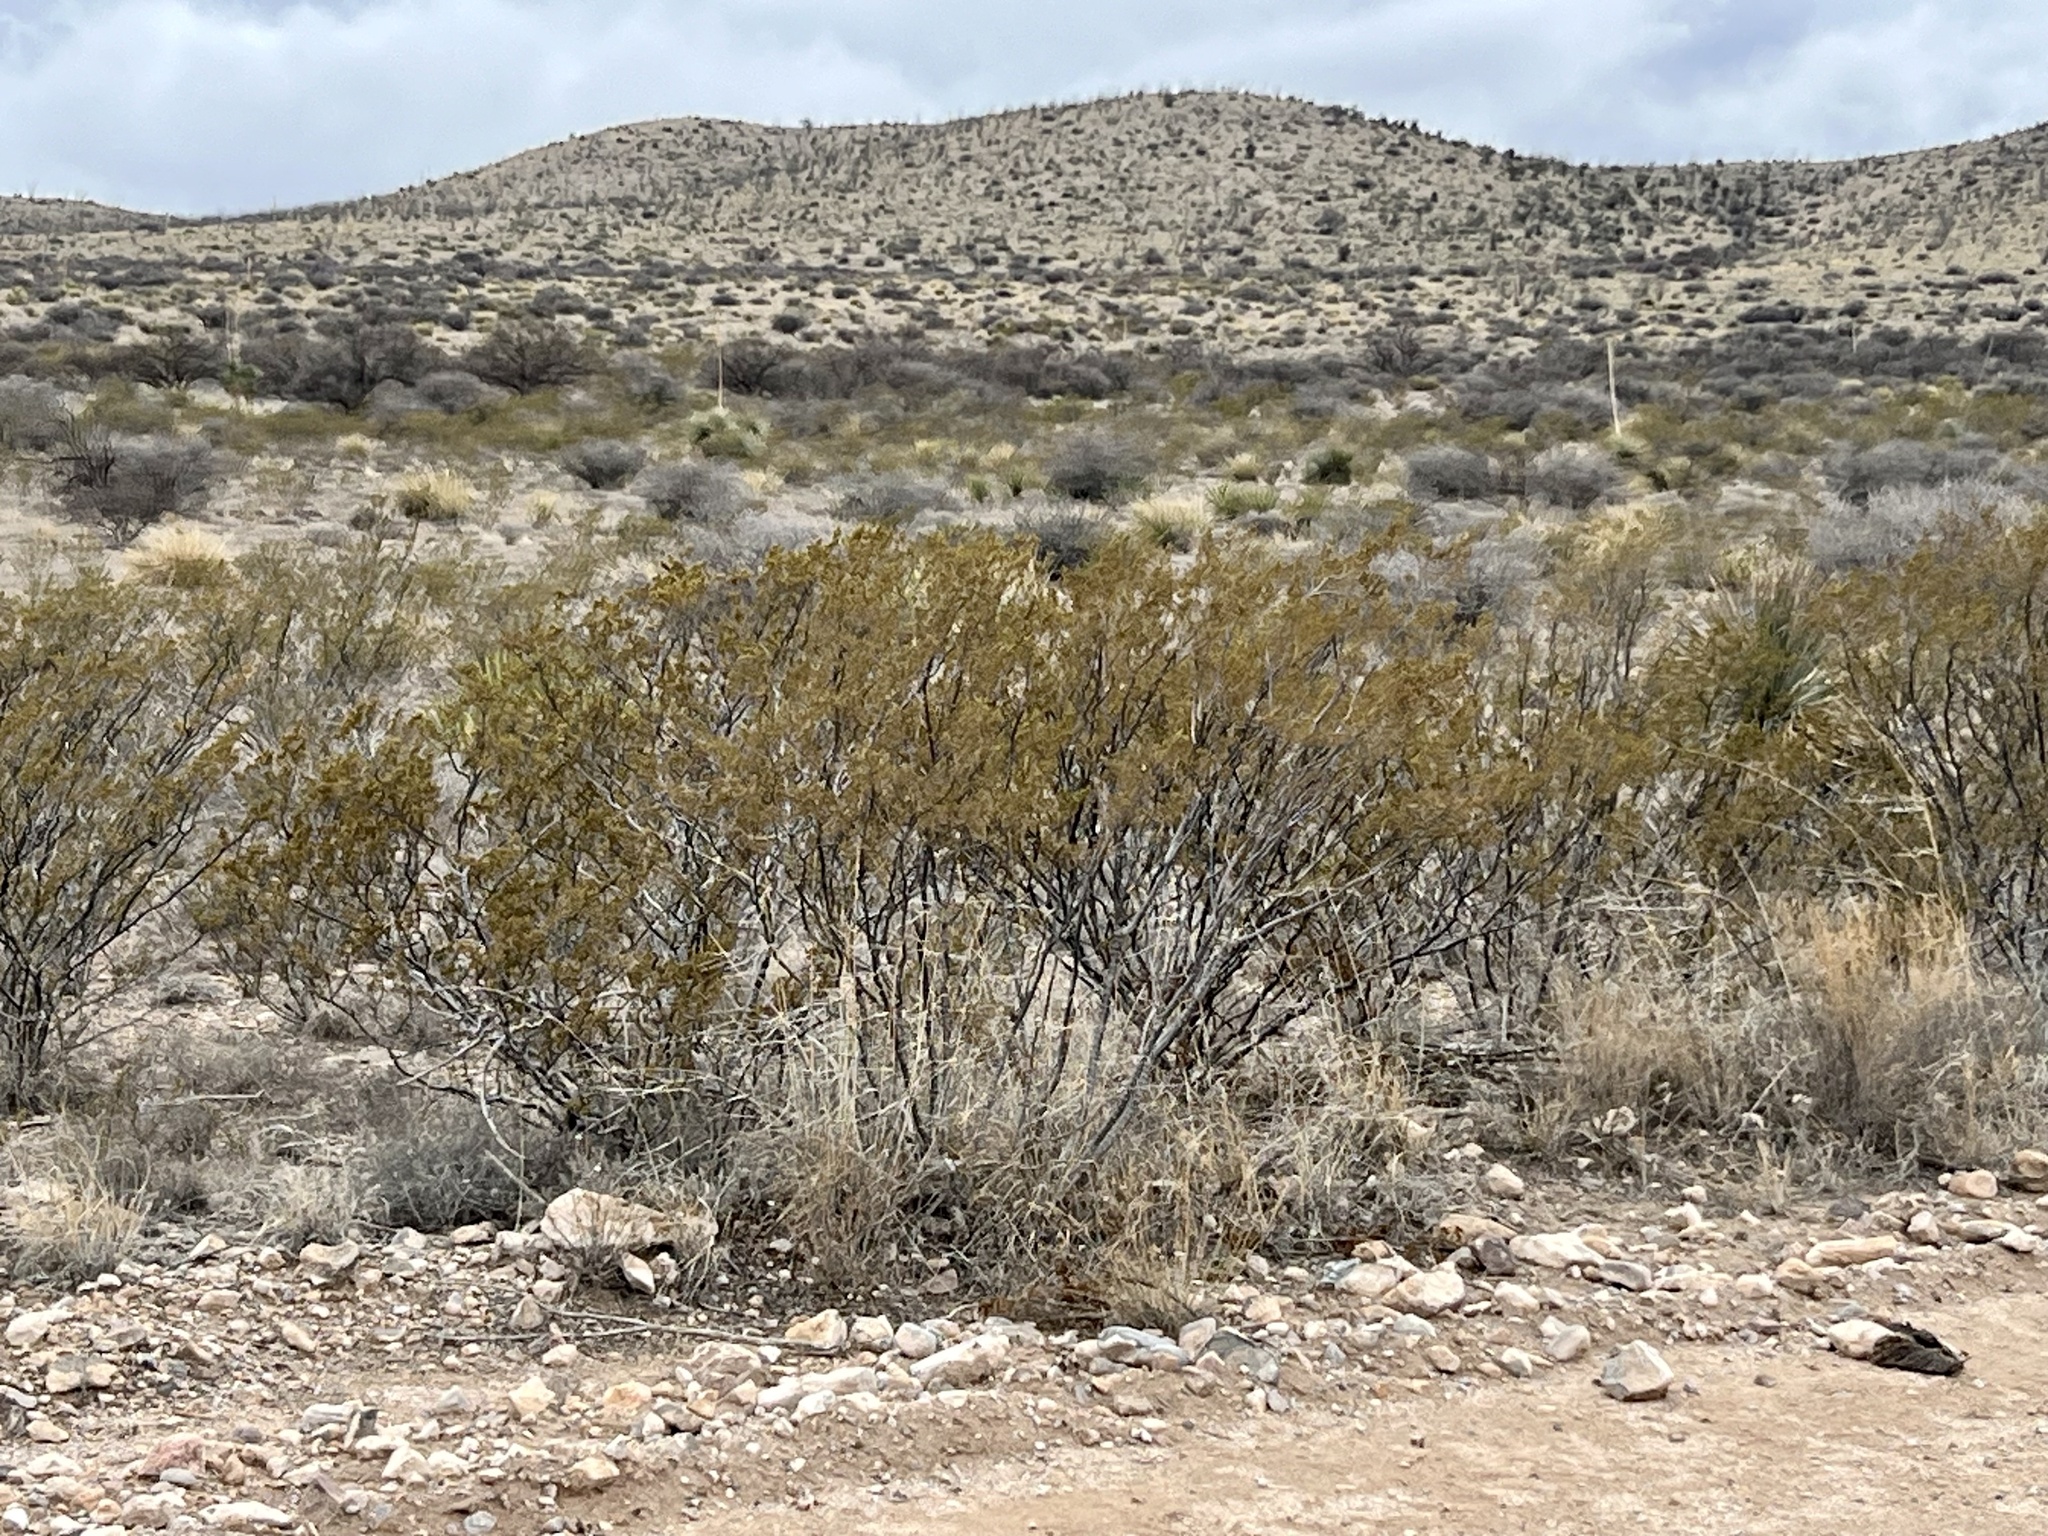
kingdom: Plantae
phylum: Tracheophyta
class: Magnoliopsida
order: Zygophyllales
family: Zygophyllaceae
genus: Larrea
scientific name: Larrea tridentata
